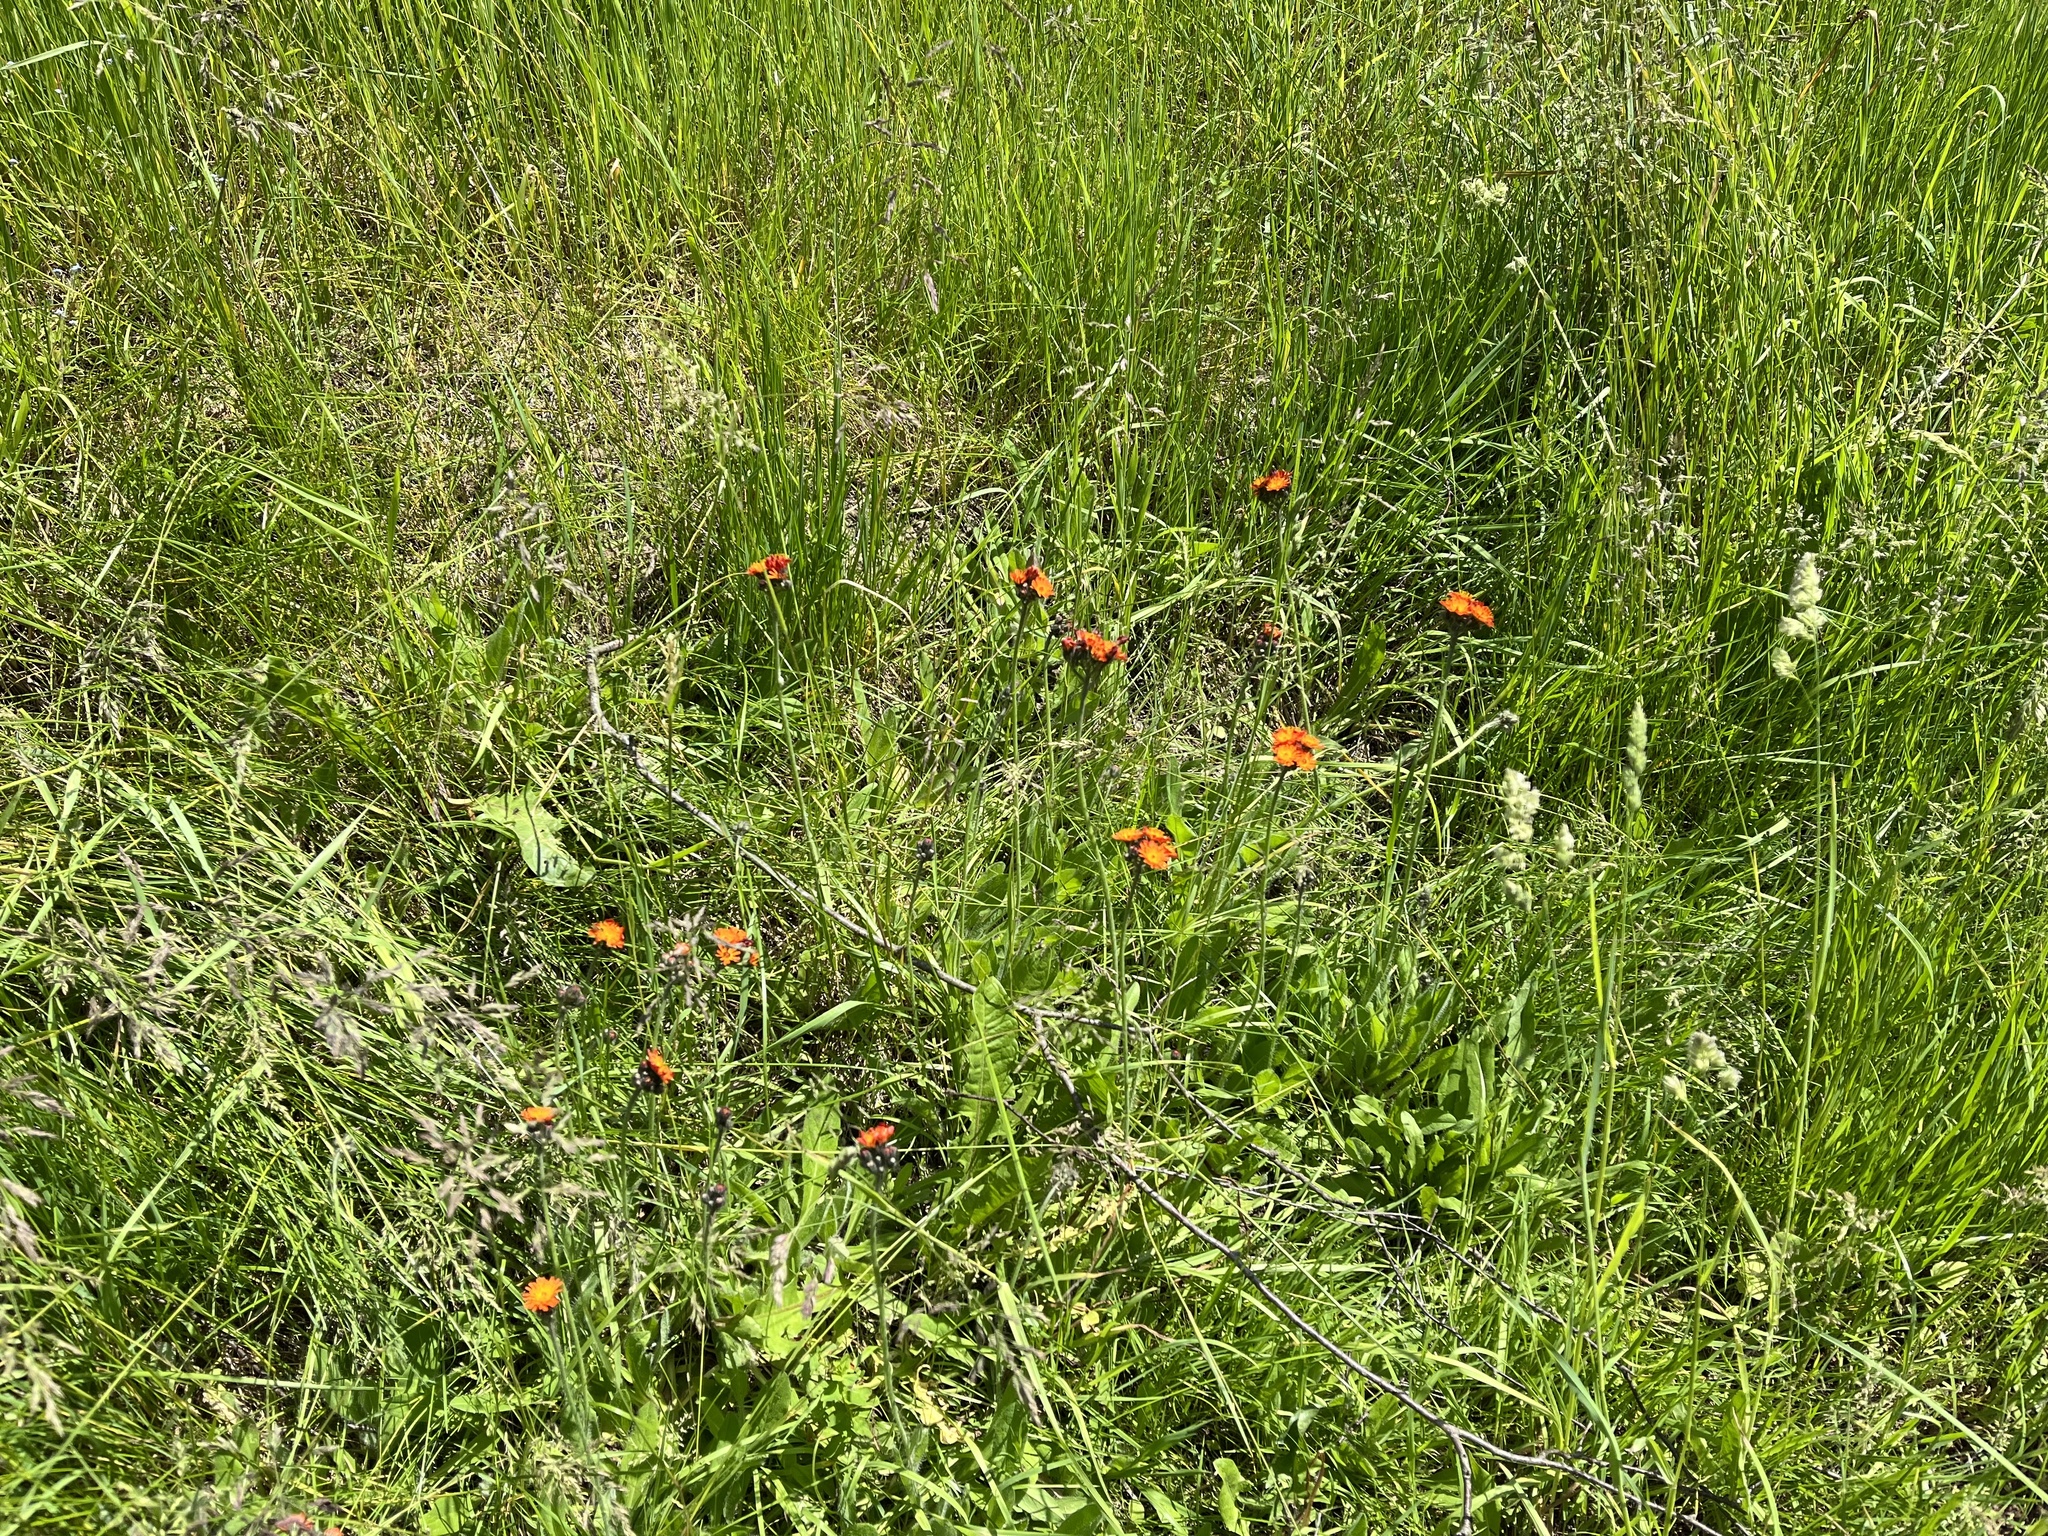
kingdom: Plantae
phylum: Tracheophyta
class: Magnoliopsida
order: Asterales
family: Asteraceae
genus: Pilosella
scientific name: Pilosella aurantiaca
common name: Fox-and-cubs
